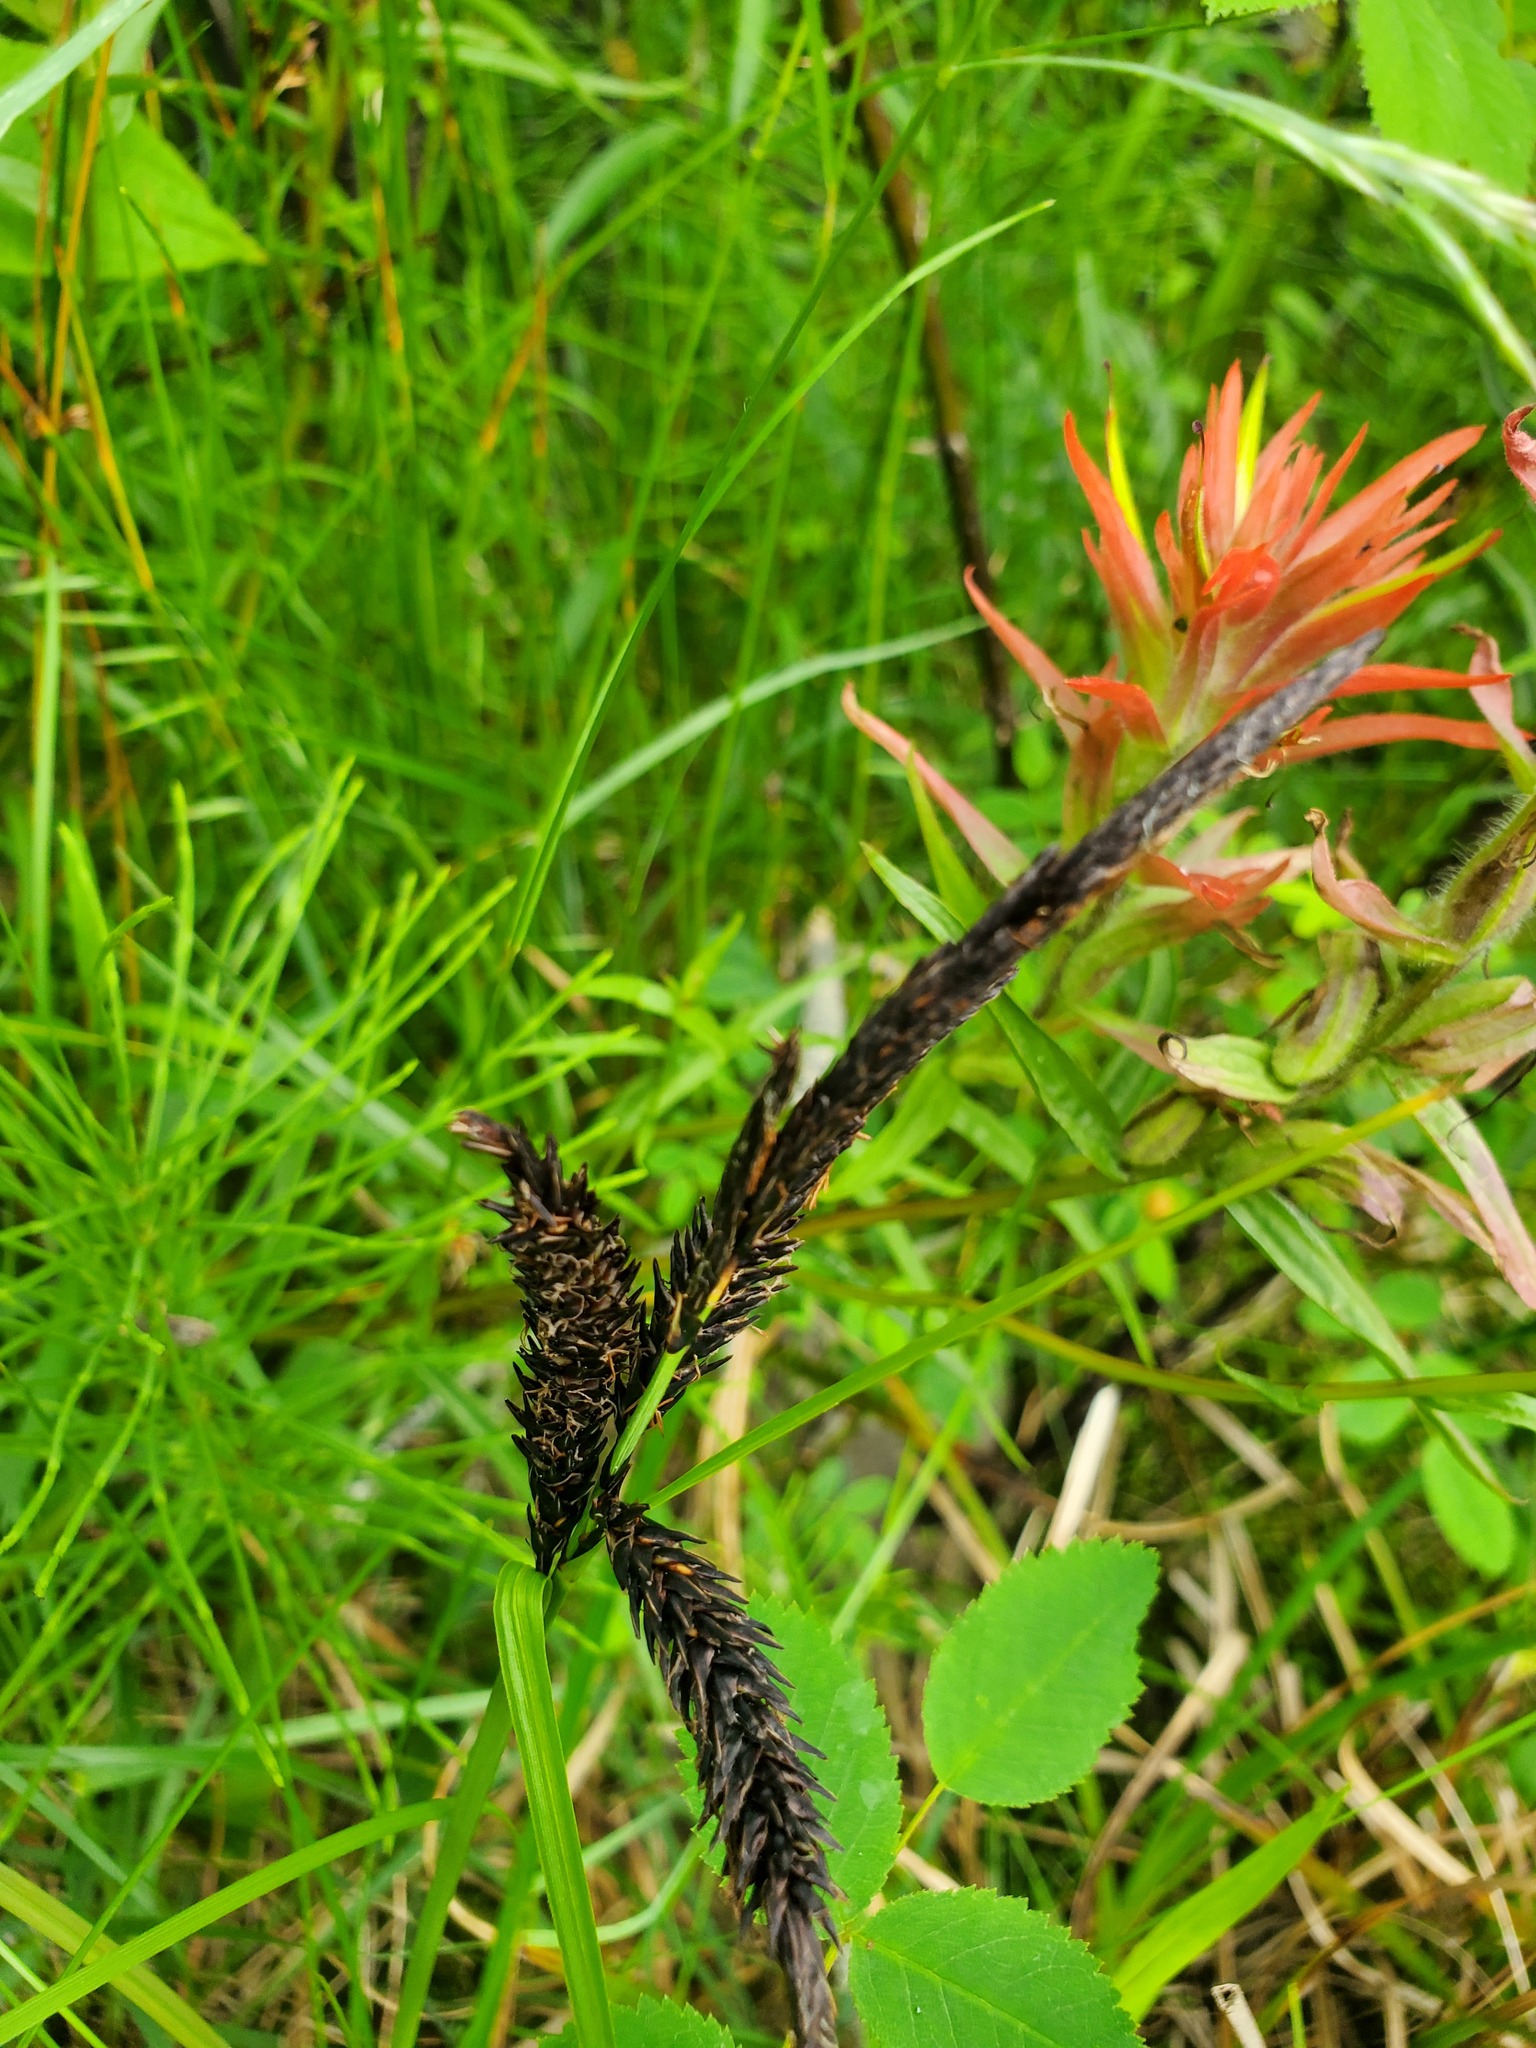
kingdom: Plantae
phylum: Tracheophyta
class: Liliopsida
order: Poales
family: Cyperaceae
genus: Carex
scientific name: Carex obnupta
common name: Slough sedge
